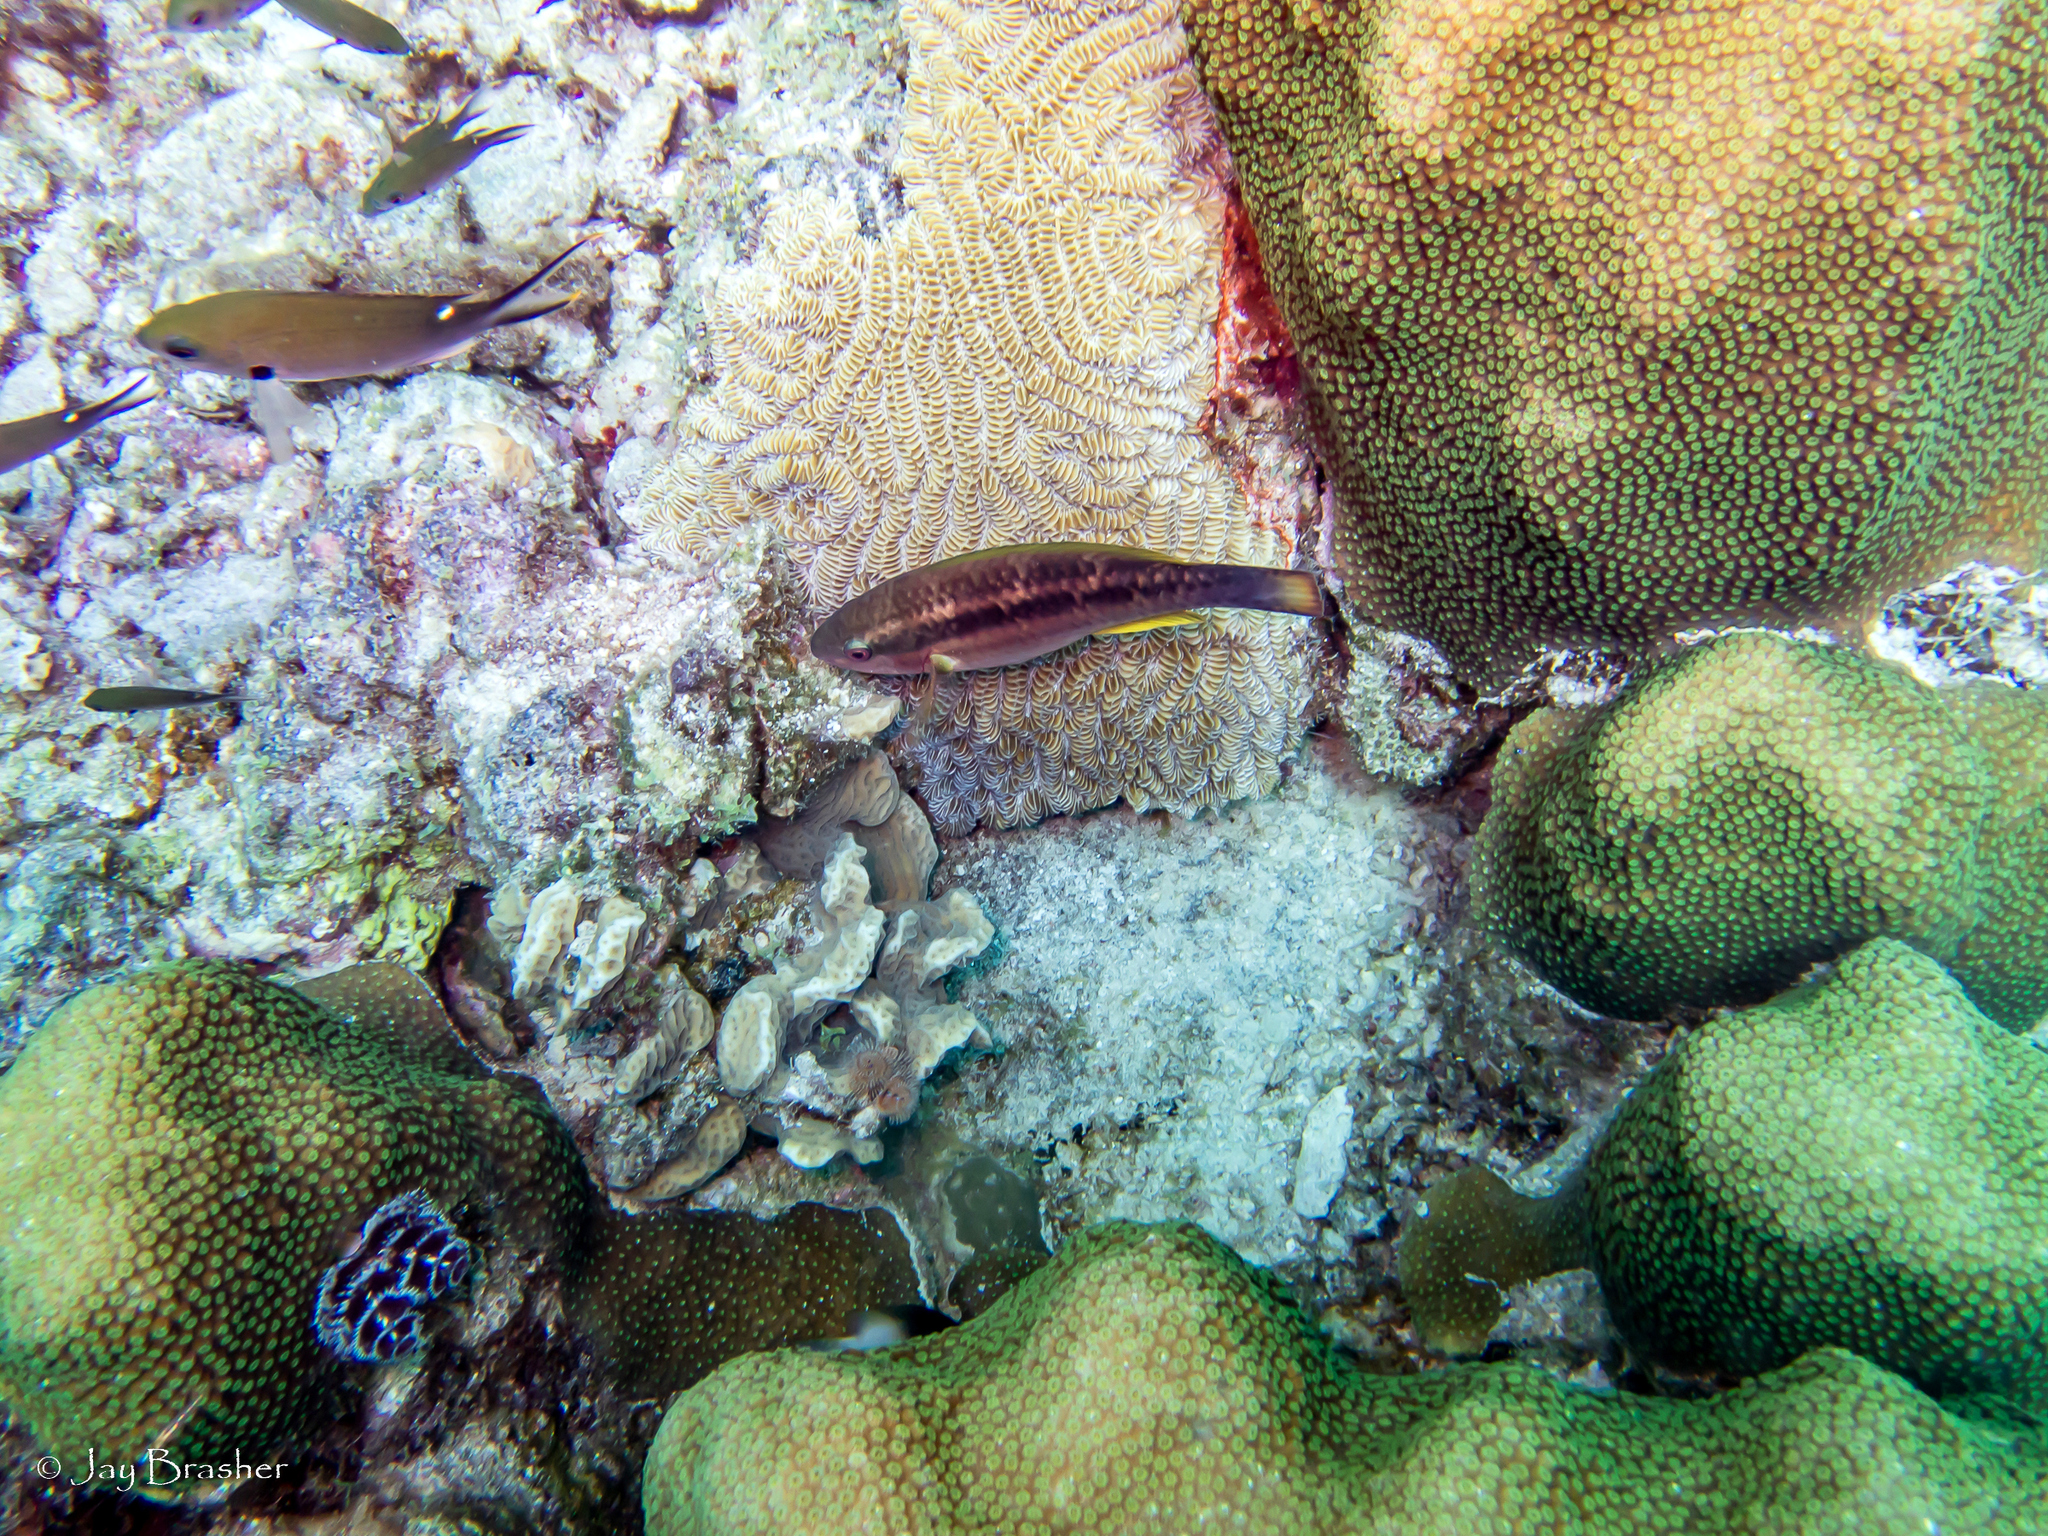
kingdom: Animalia
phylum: Chordata
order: Perciformes
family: Scaridae
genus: Scarus
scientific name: Scarus taeniopterus
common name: Princess parrotfish
